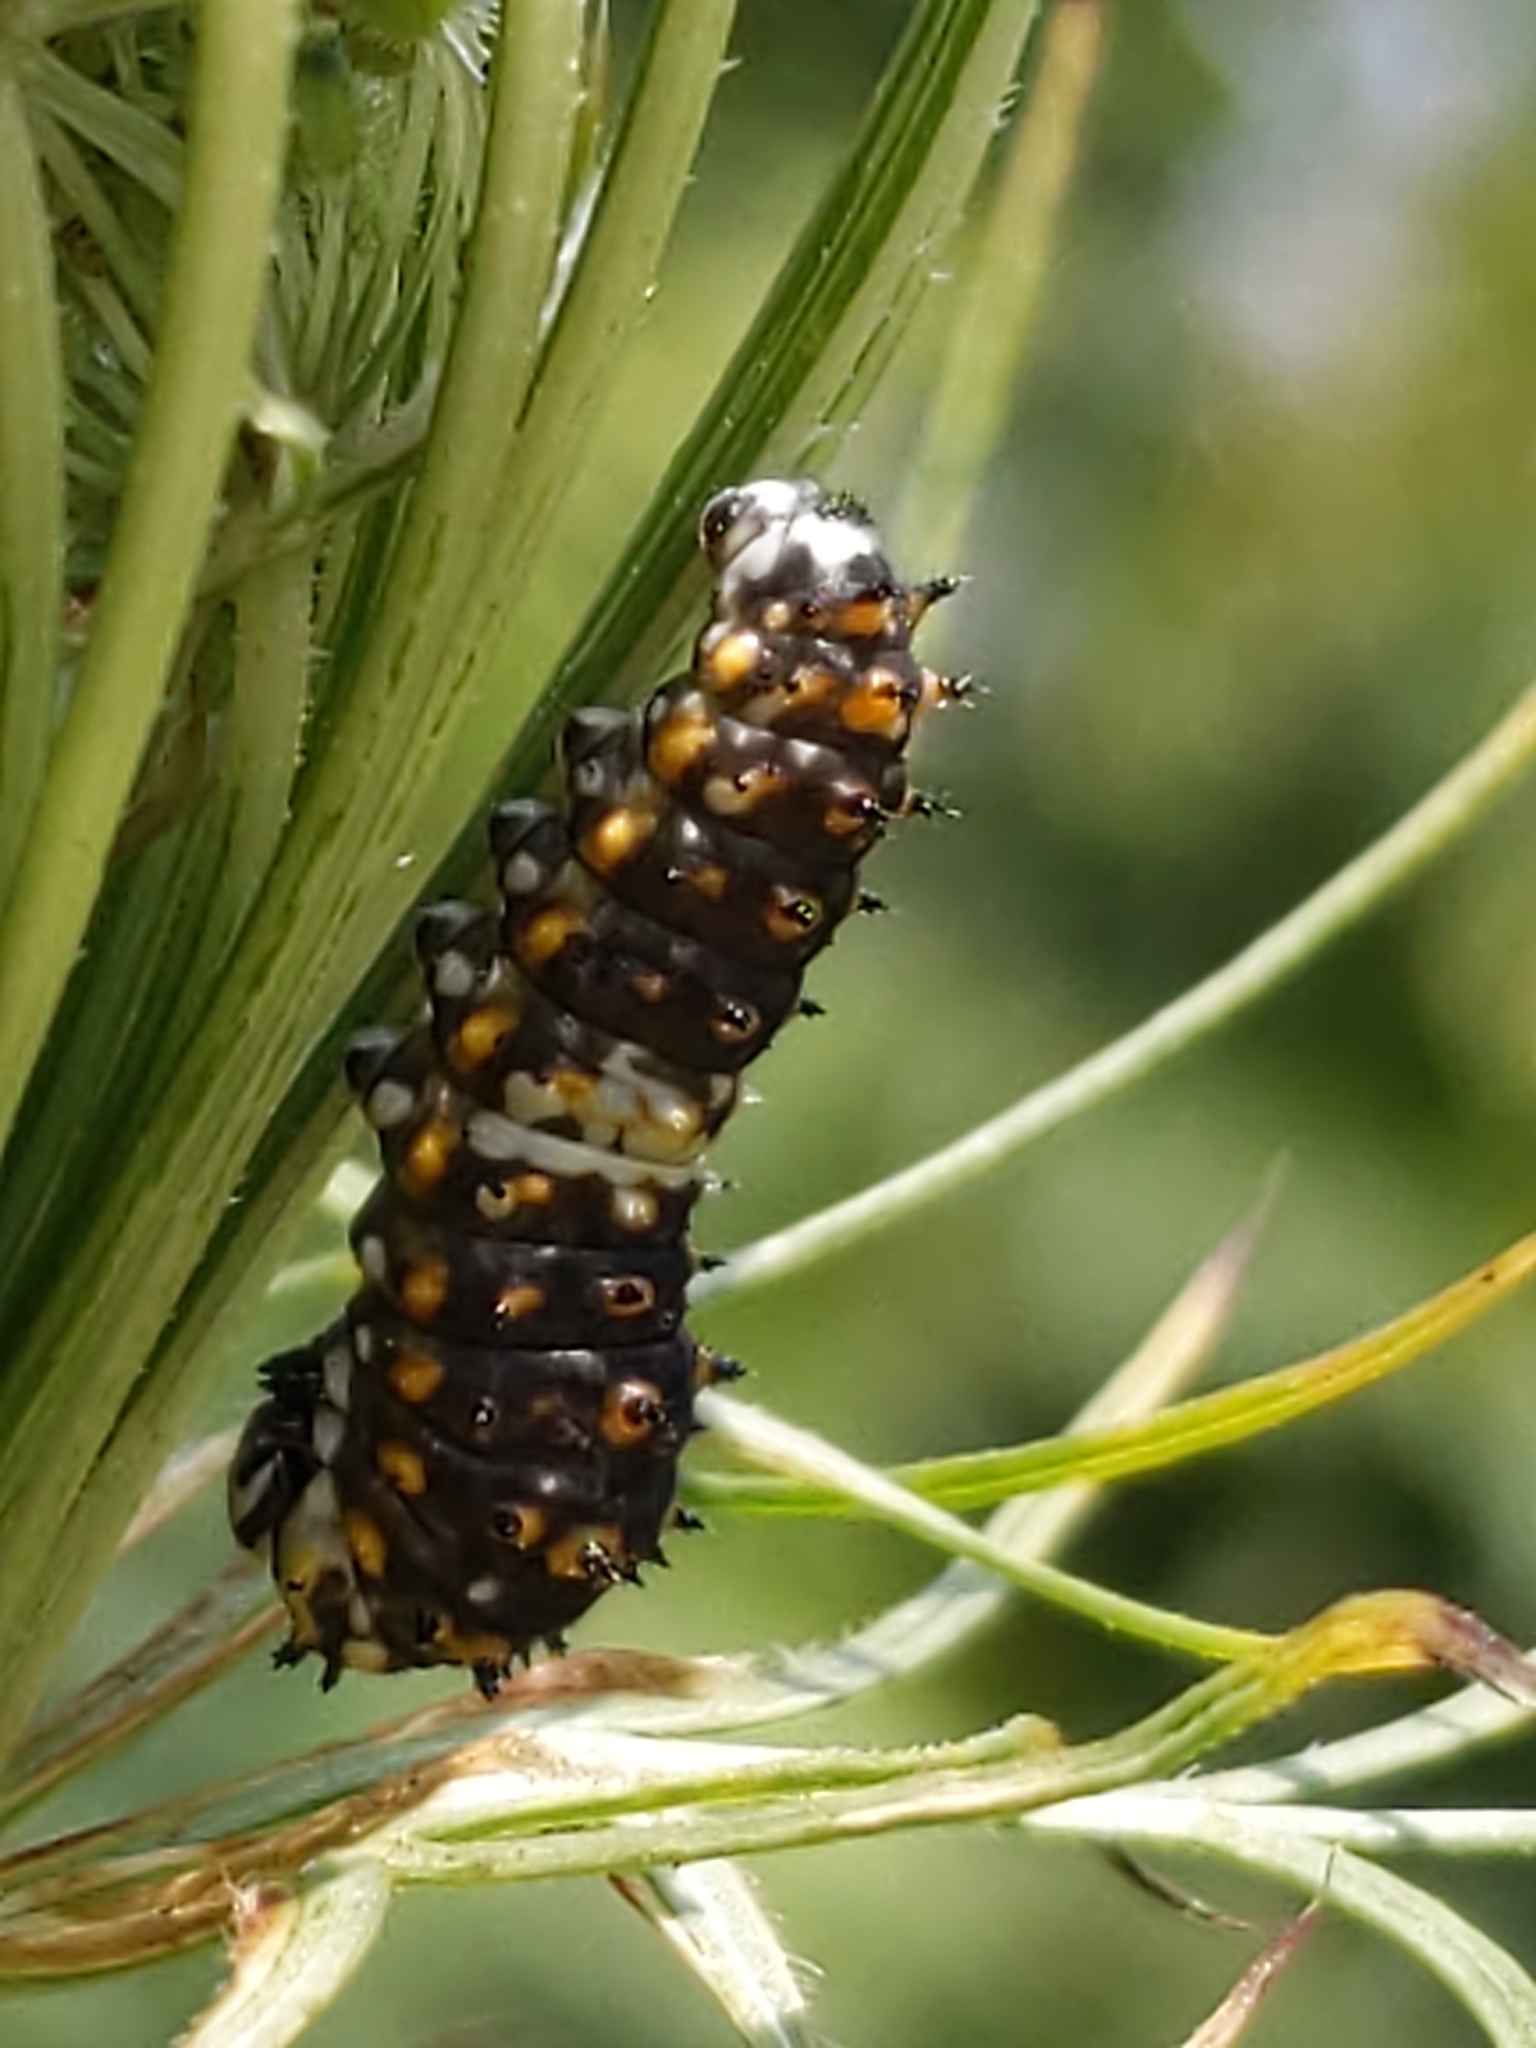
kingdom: Animalia
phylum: Arthropoda
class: Insecta
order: Lepidoptera
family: Papilionidae
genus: Papilio
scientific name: Papilio polyxenes
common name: Black swallowtail
